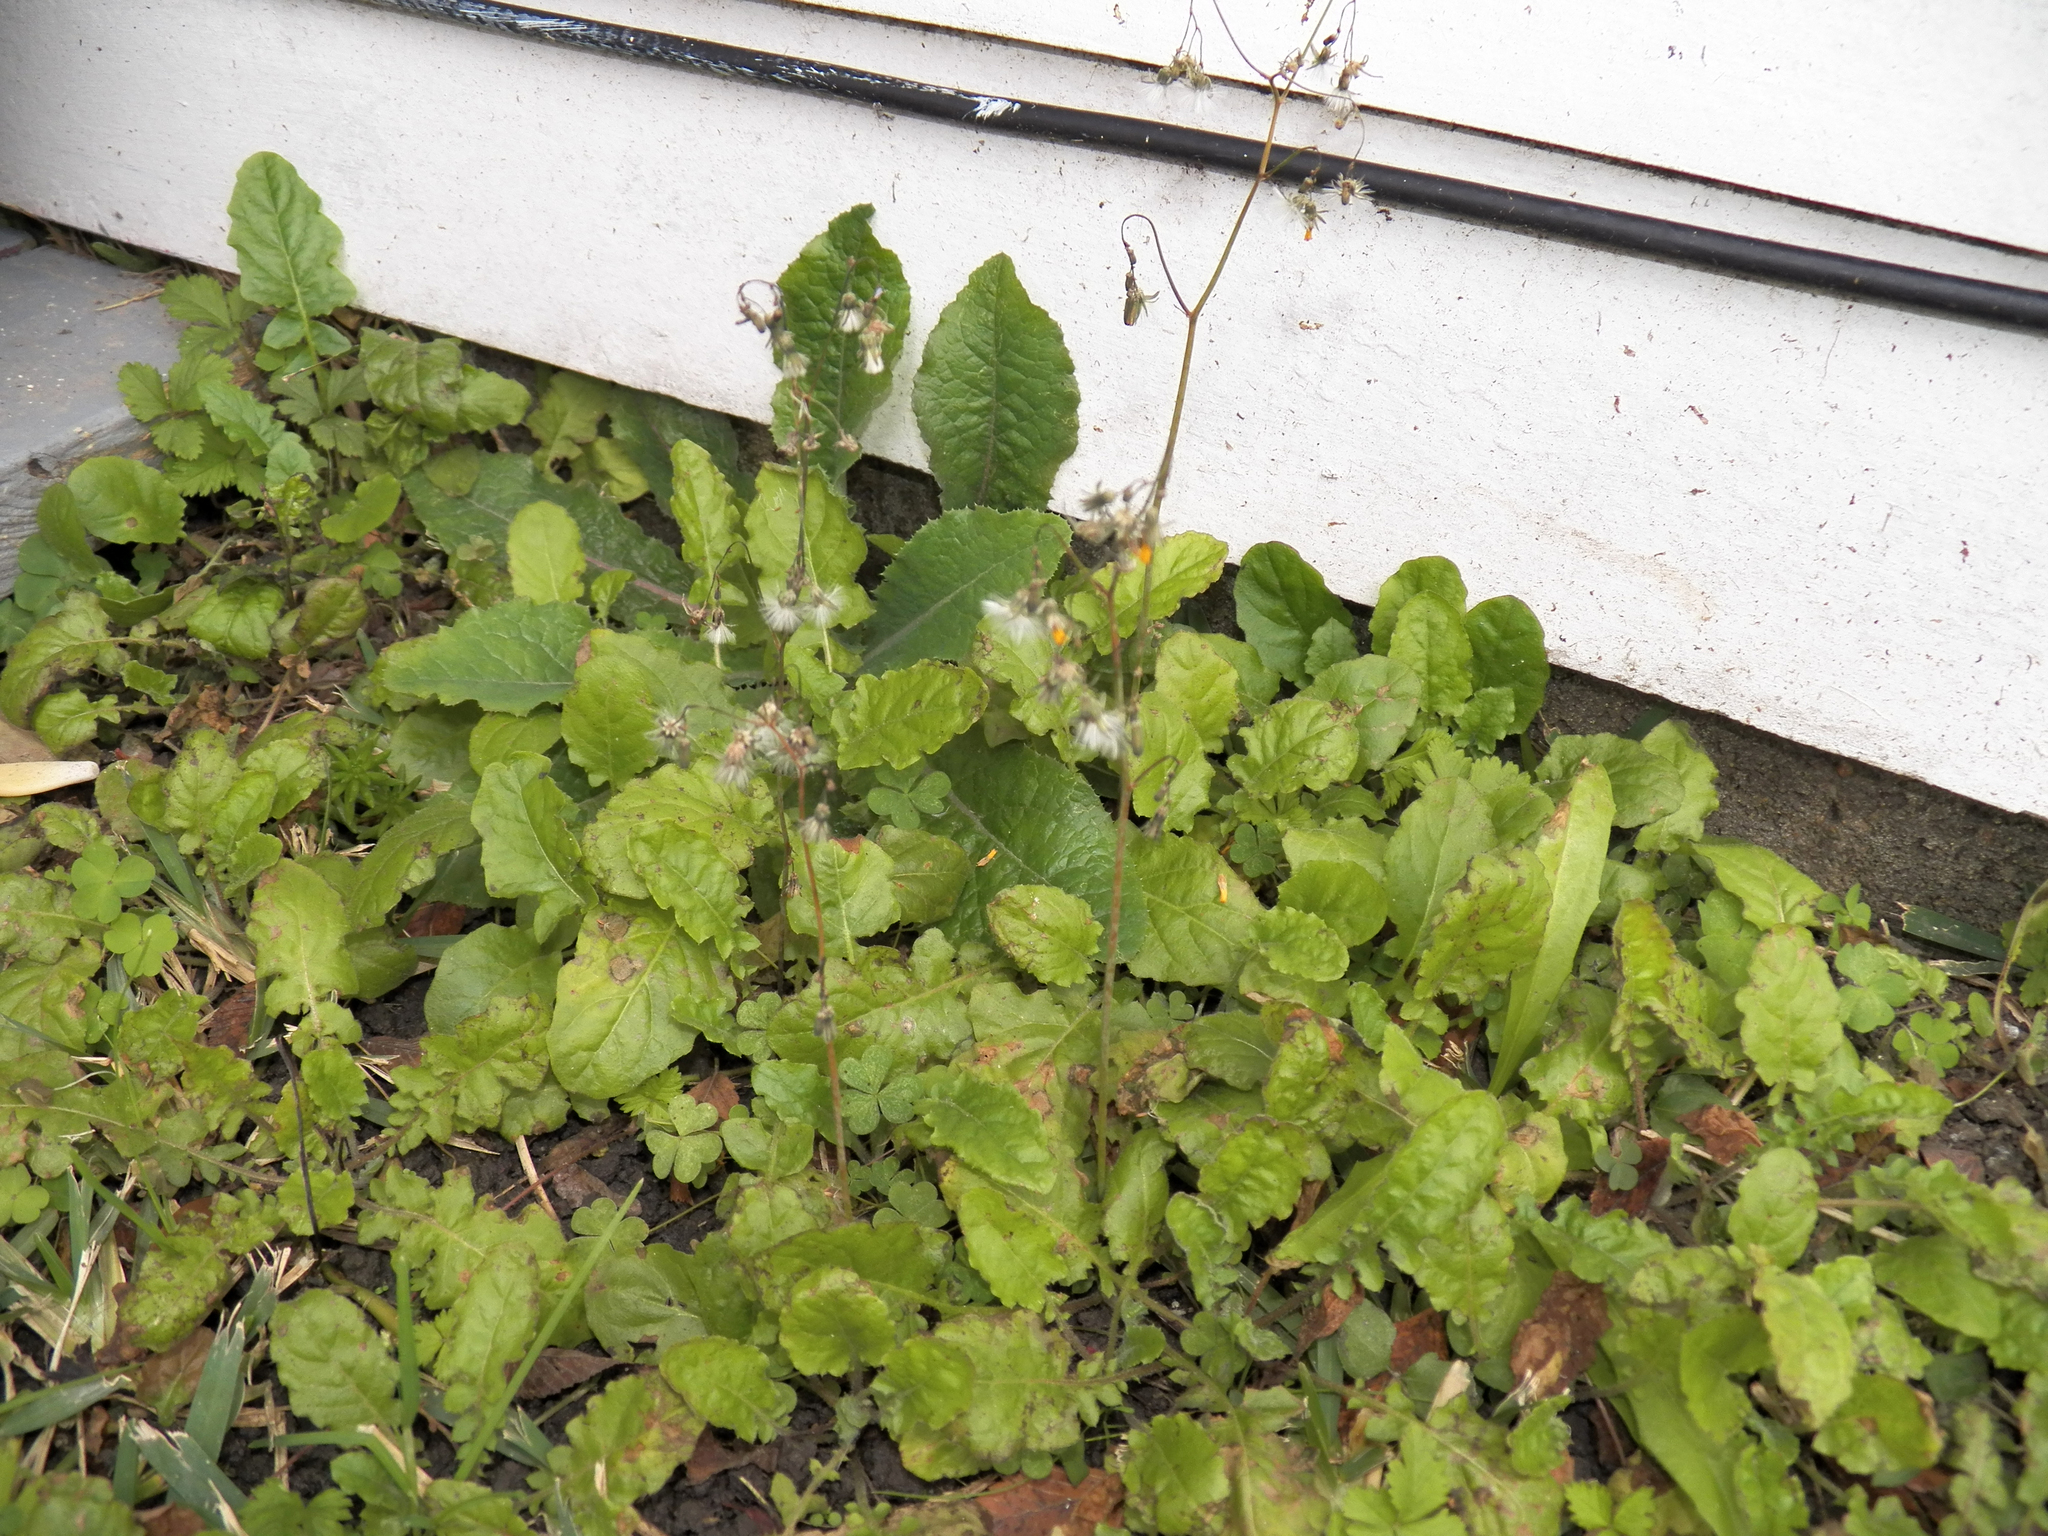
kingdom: Plantae
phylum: Tracheophyta
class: Magnoliopsida
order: Asterales
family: Asteraceae
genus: Youngia
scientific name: Youngia japonica
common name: Oriental false hawksbeard
